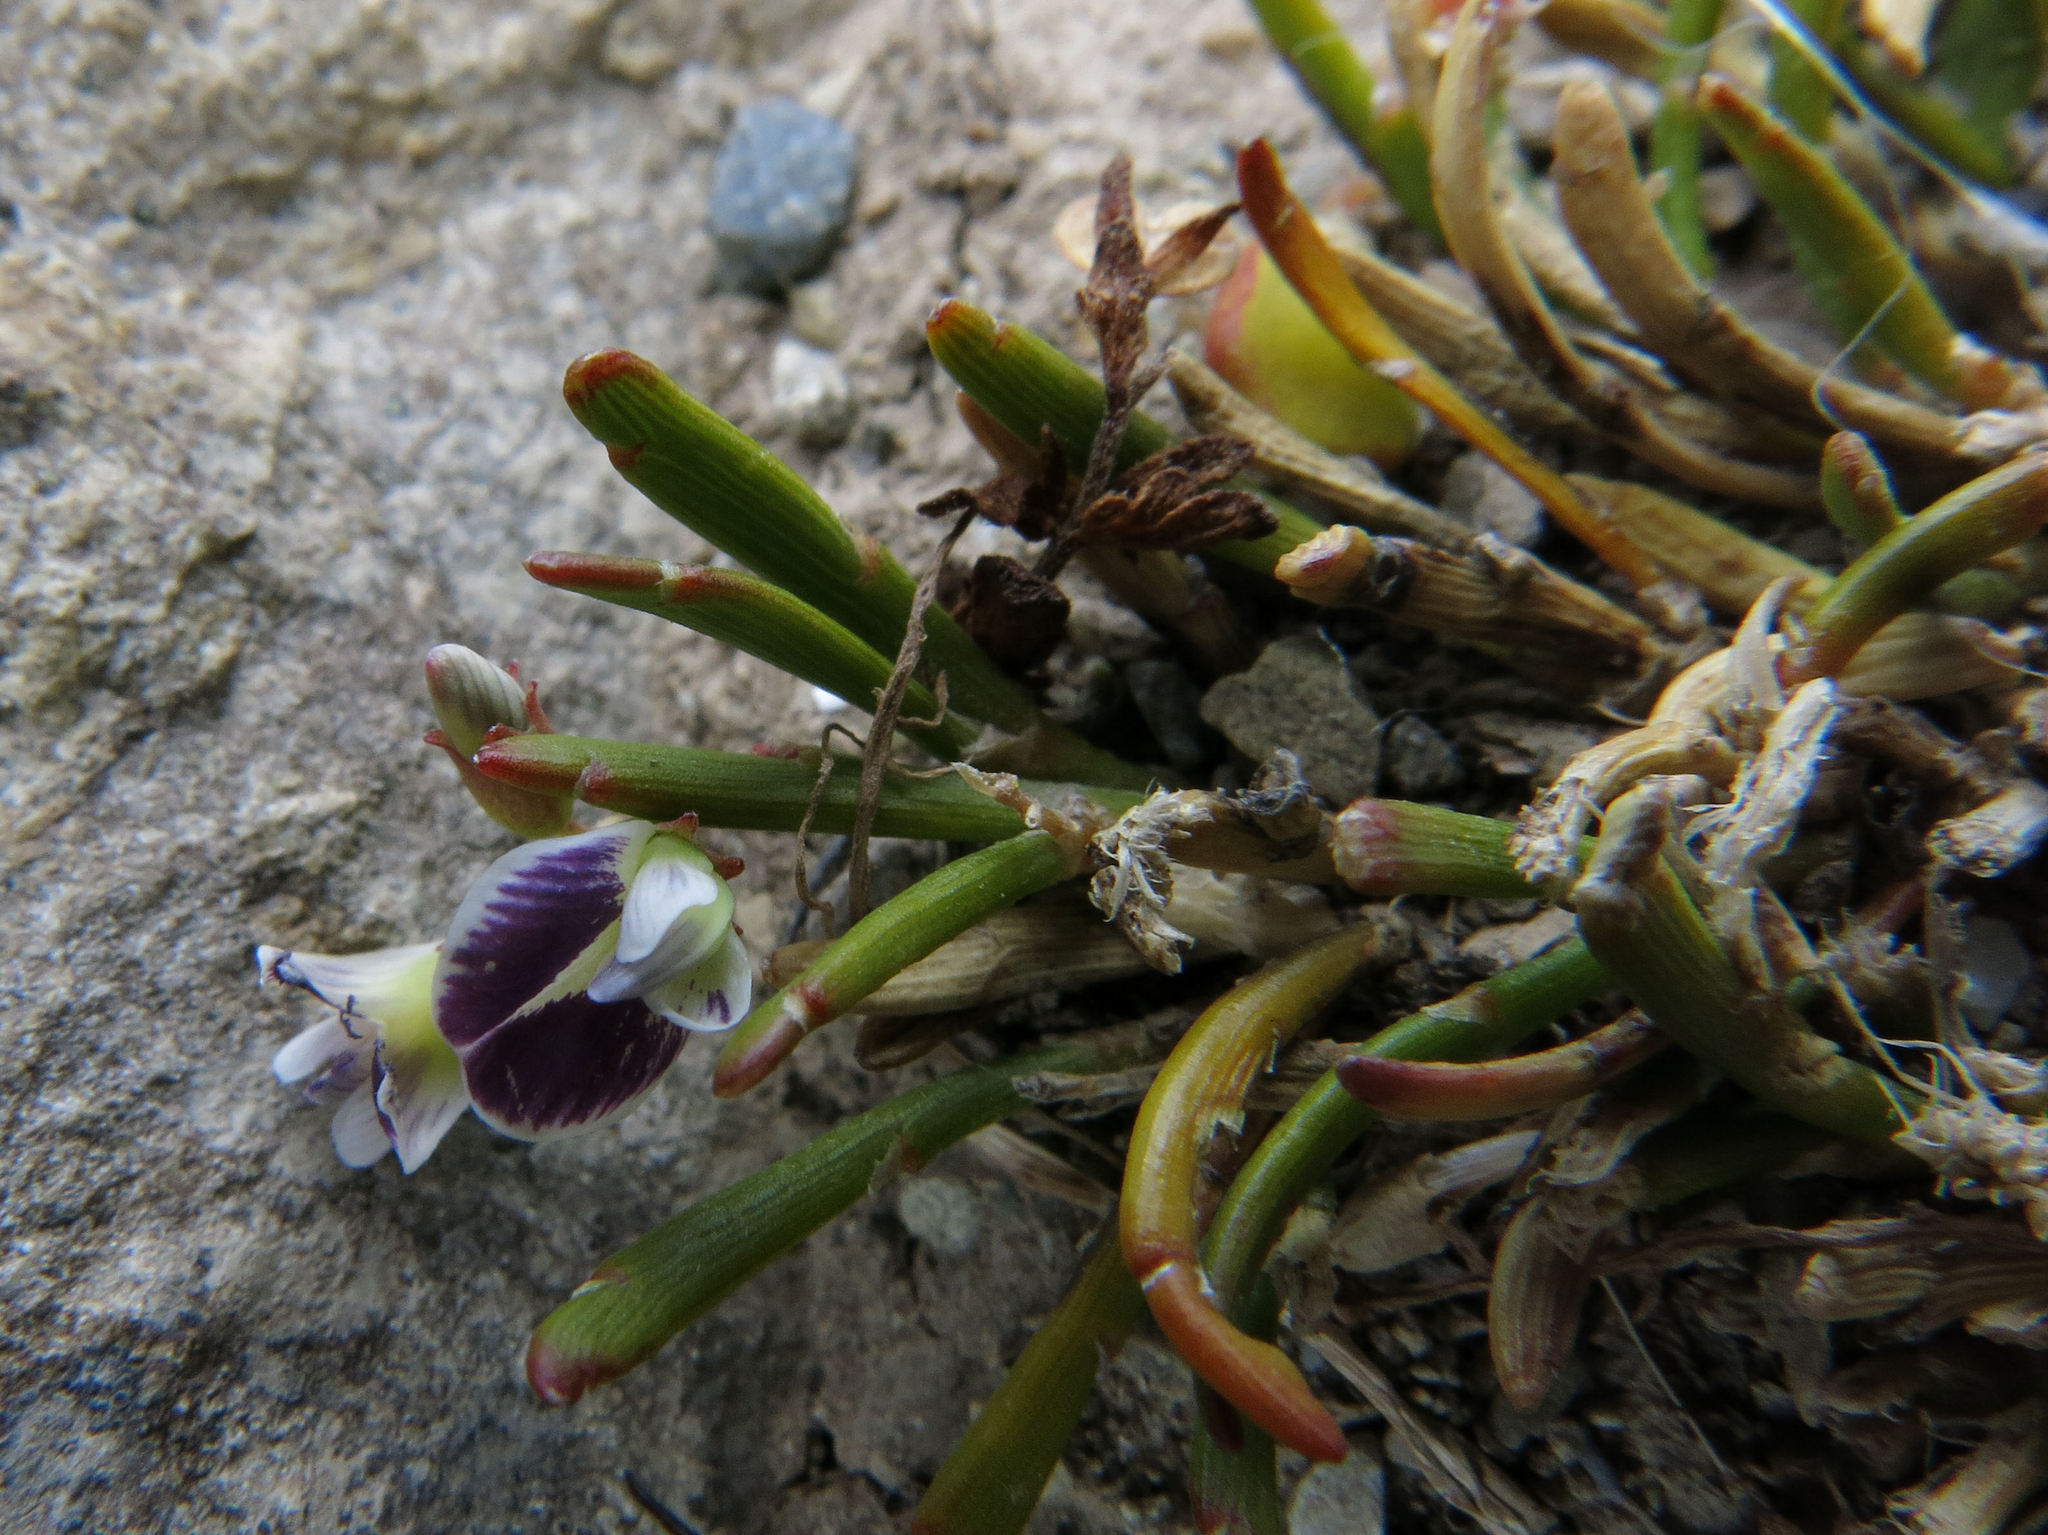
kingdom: Plantae
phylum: Tracheophyta
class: Magnoliopsida
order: Fabales
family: Fabaceae
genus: Carmichaelia
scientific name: Carmichaelia nana
